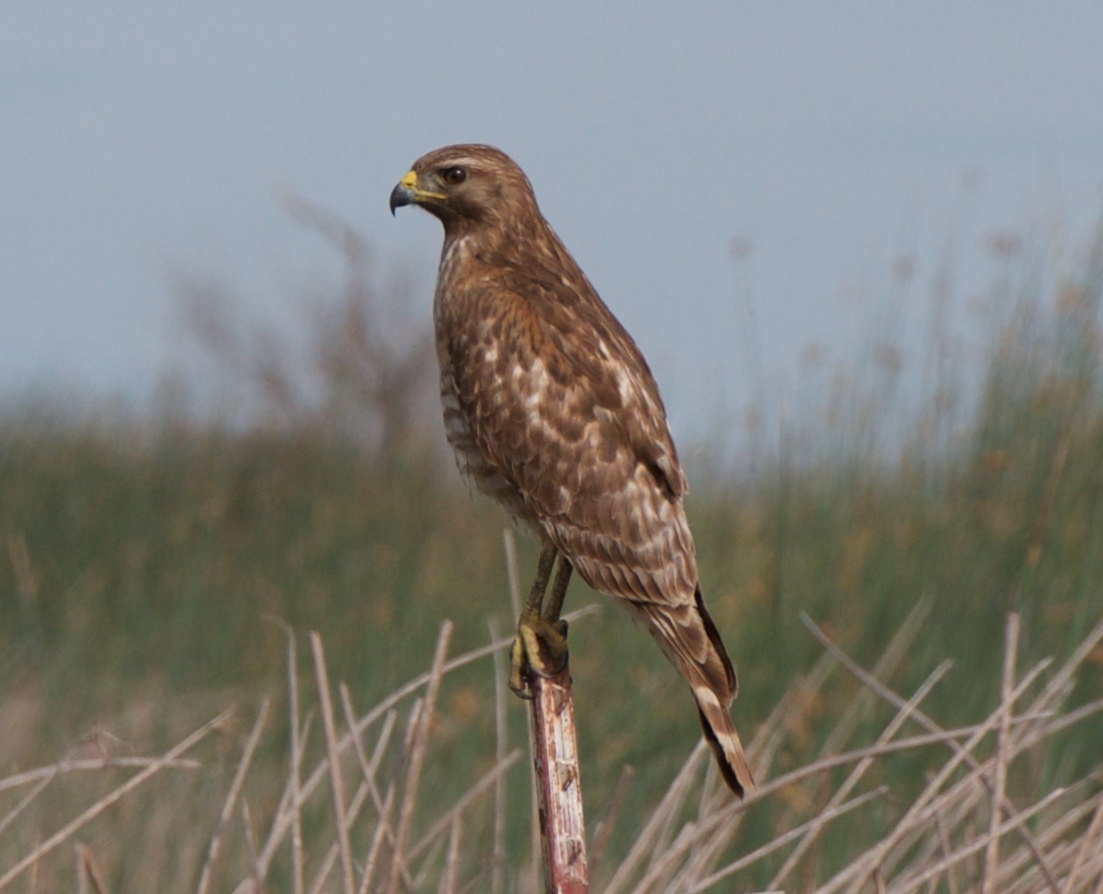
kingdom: Animalia
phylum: Chordata
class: Aves
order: Accipitriformes
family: Accipitridae
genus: Buteo
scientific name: Buteo lineatus
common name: Red-shouldered hawk
